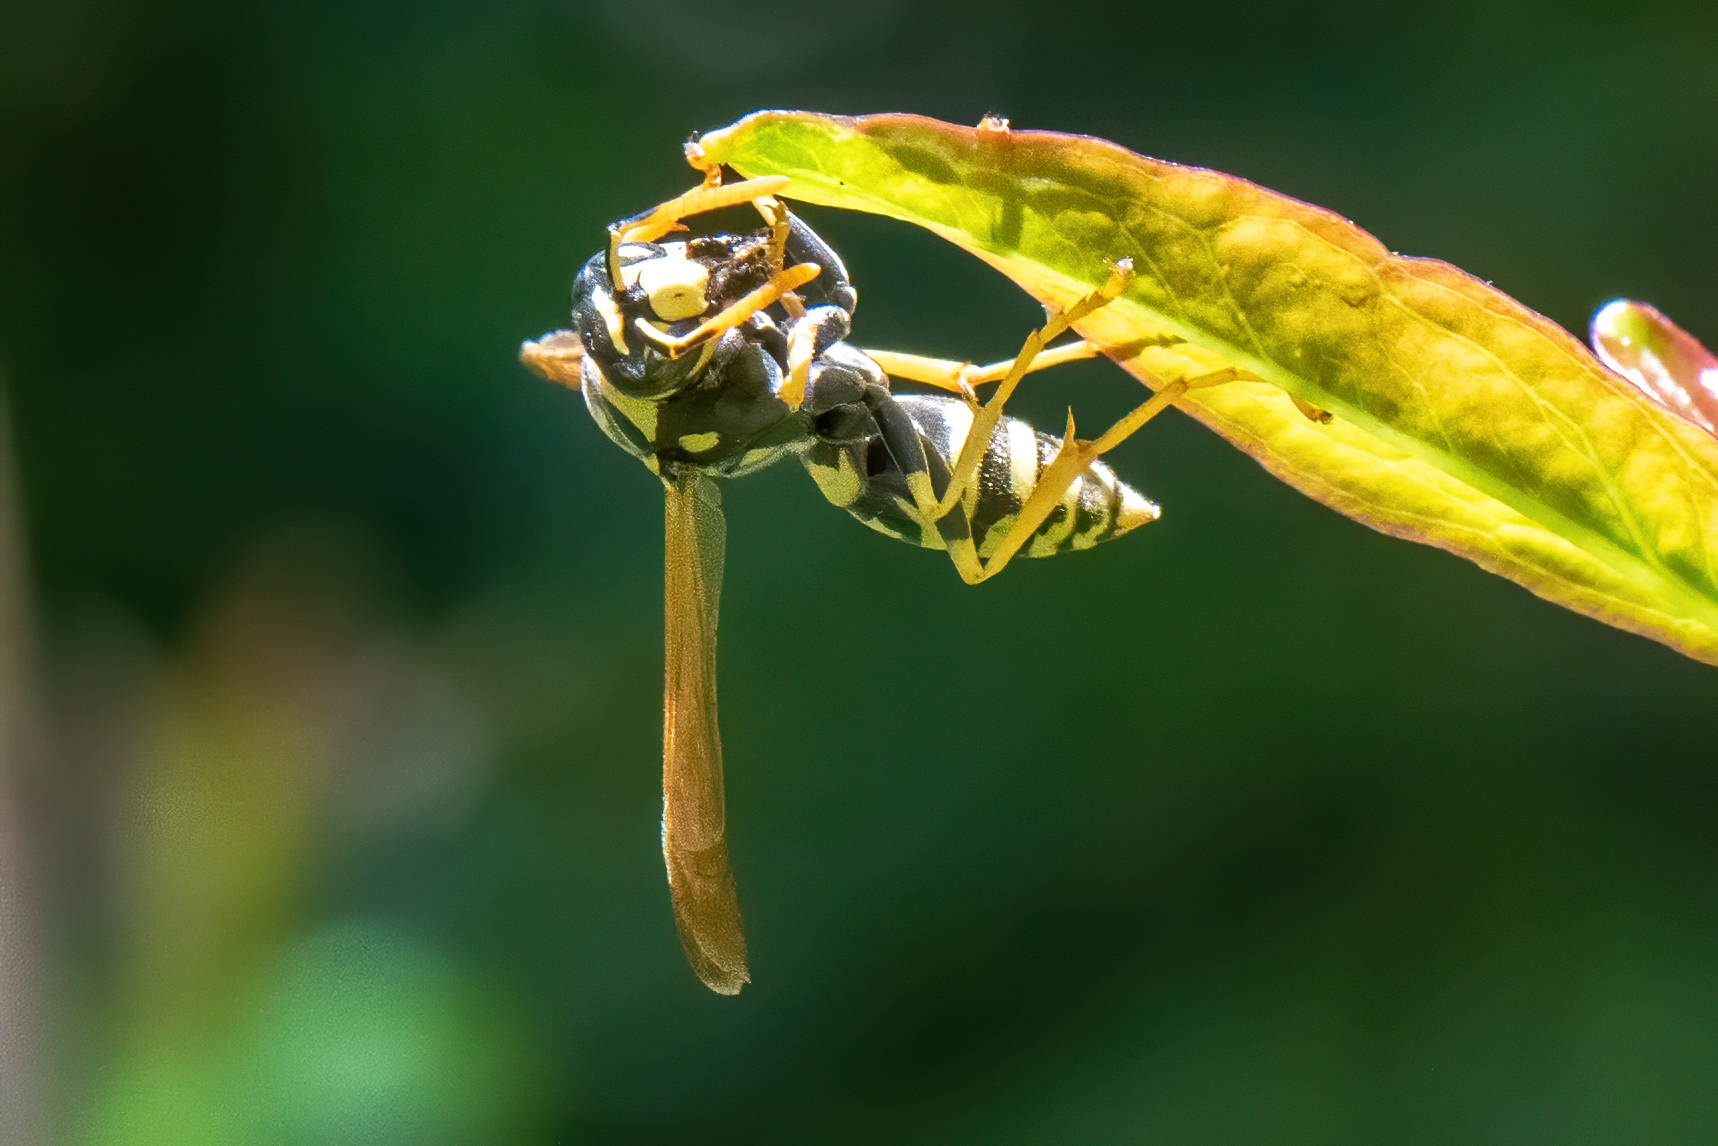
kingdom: Animalia
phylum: Arthropoda
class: Insecta
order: Hymenoptera
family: Eumenidae
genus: Polistes
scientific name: Polistes dominula
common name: Paper wasp
